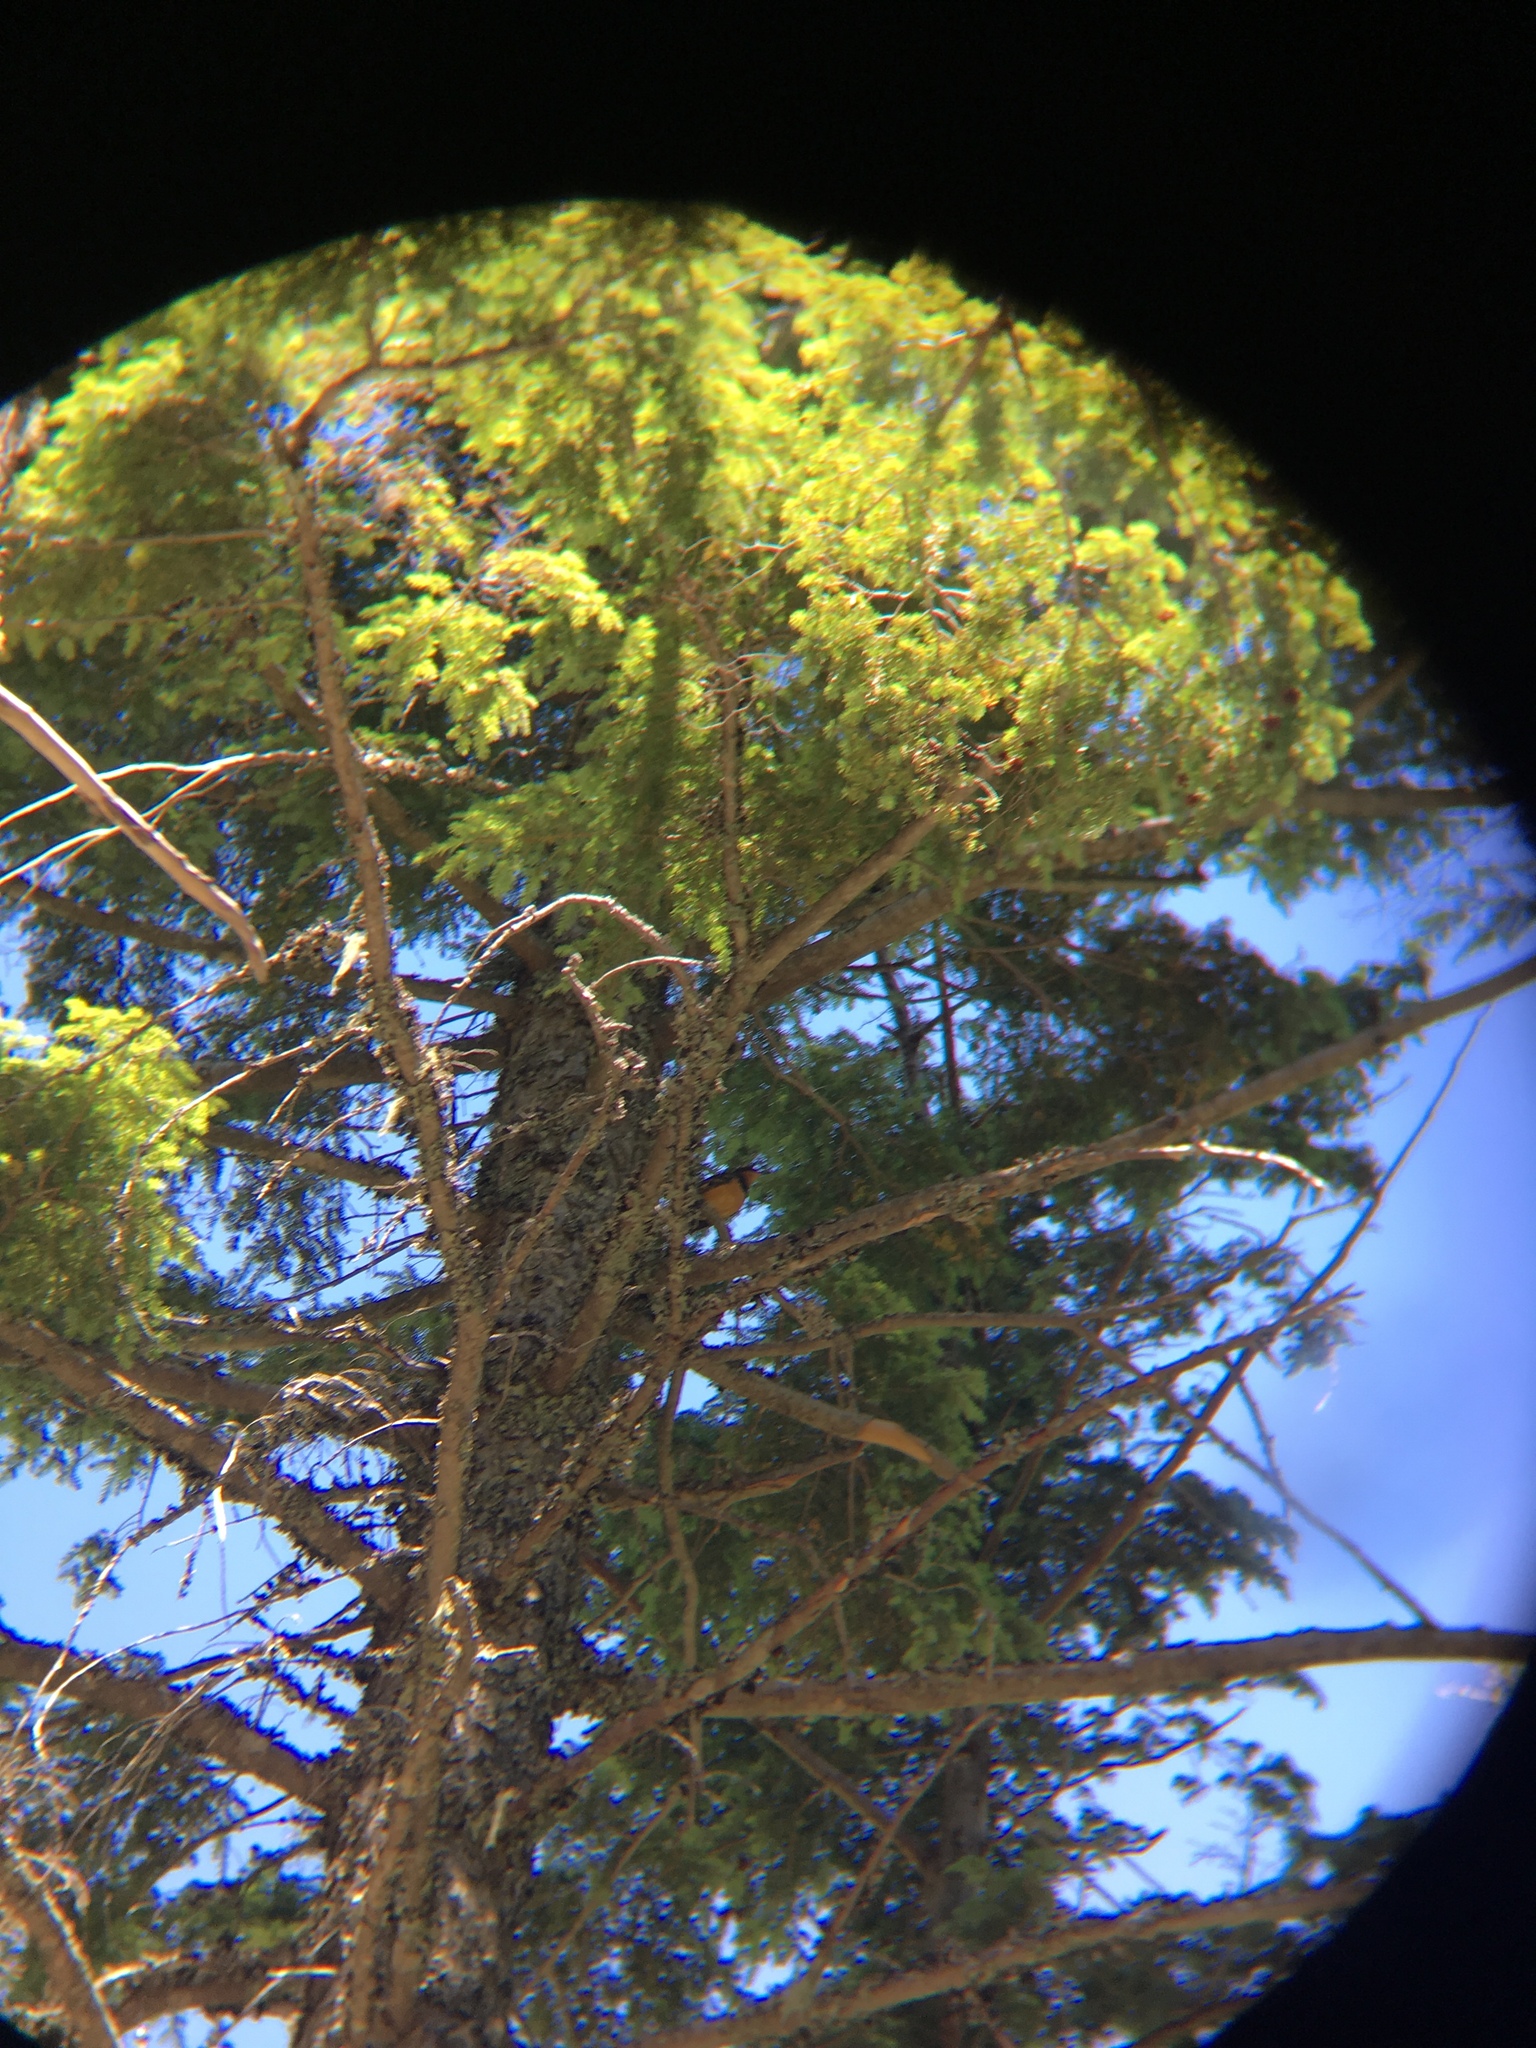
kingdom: Animalia
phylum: Chordata
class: Aves
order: Passeriformes
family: Turdidae
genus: Ixoreus
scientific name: Ixoreus naevius
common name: Varied thrush
